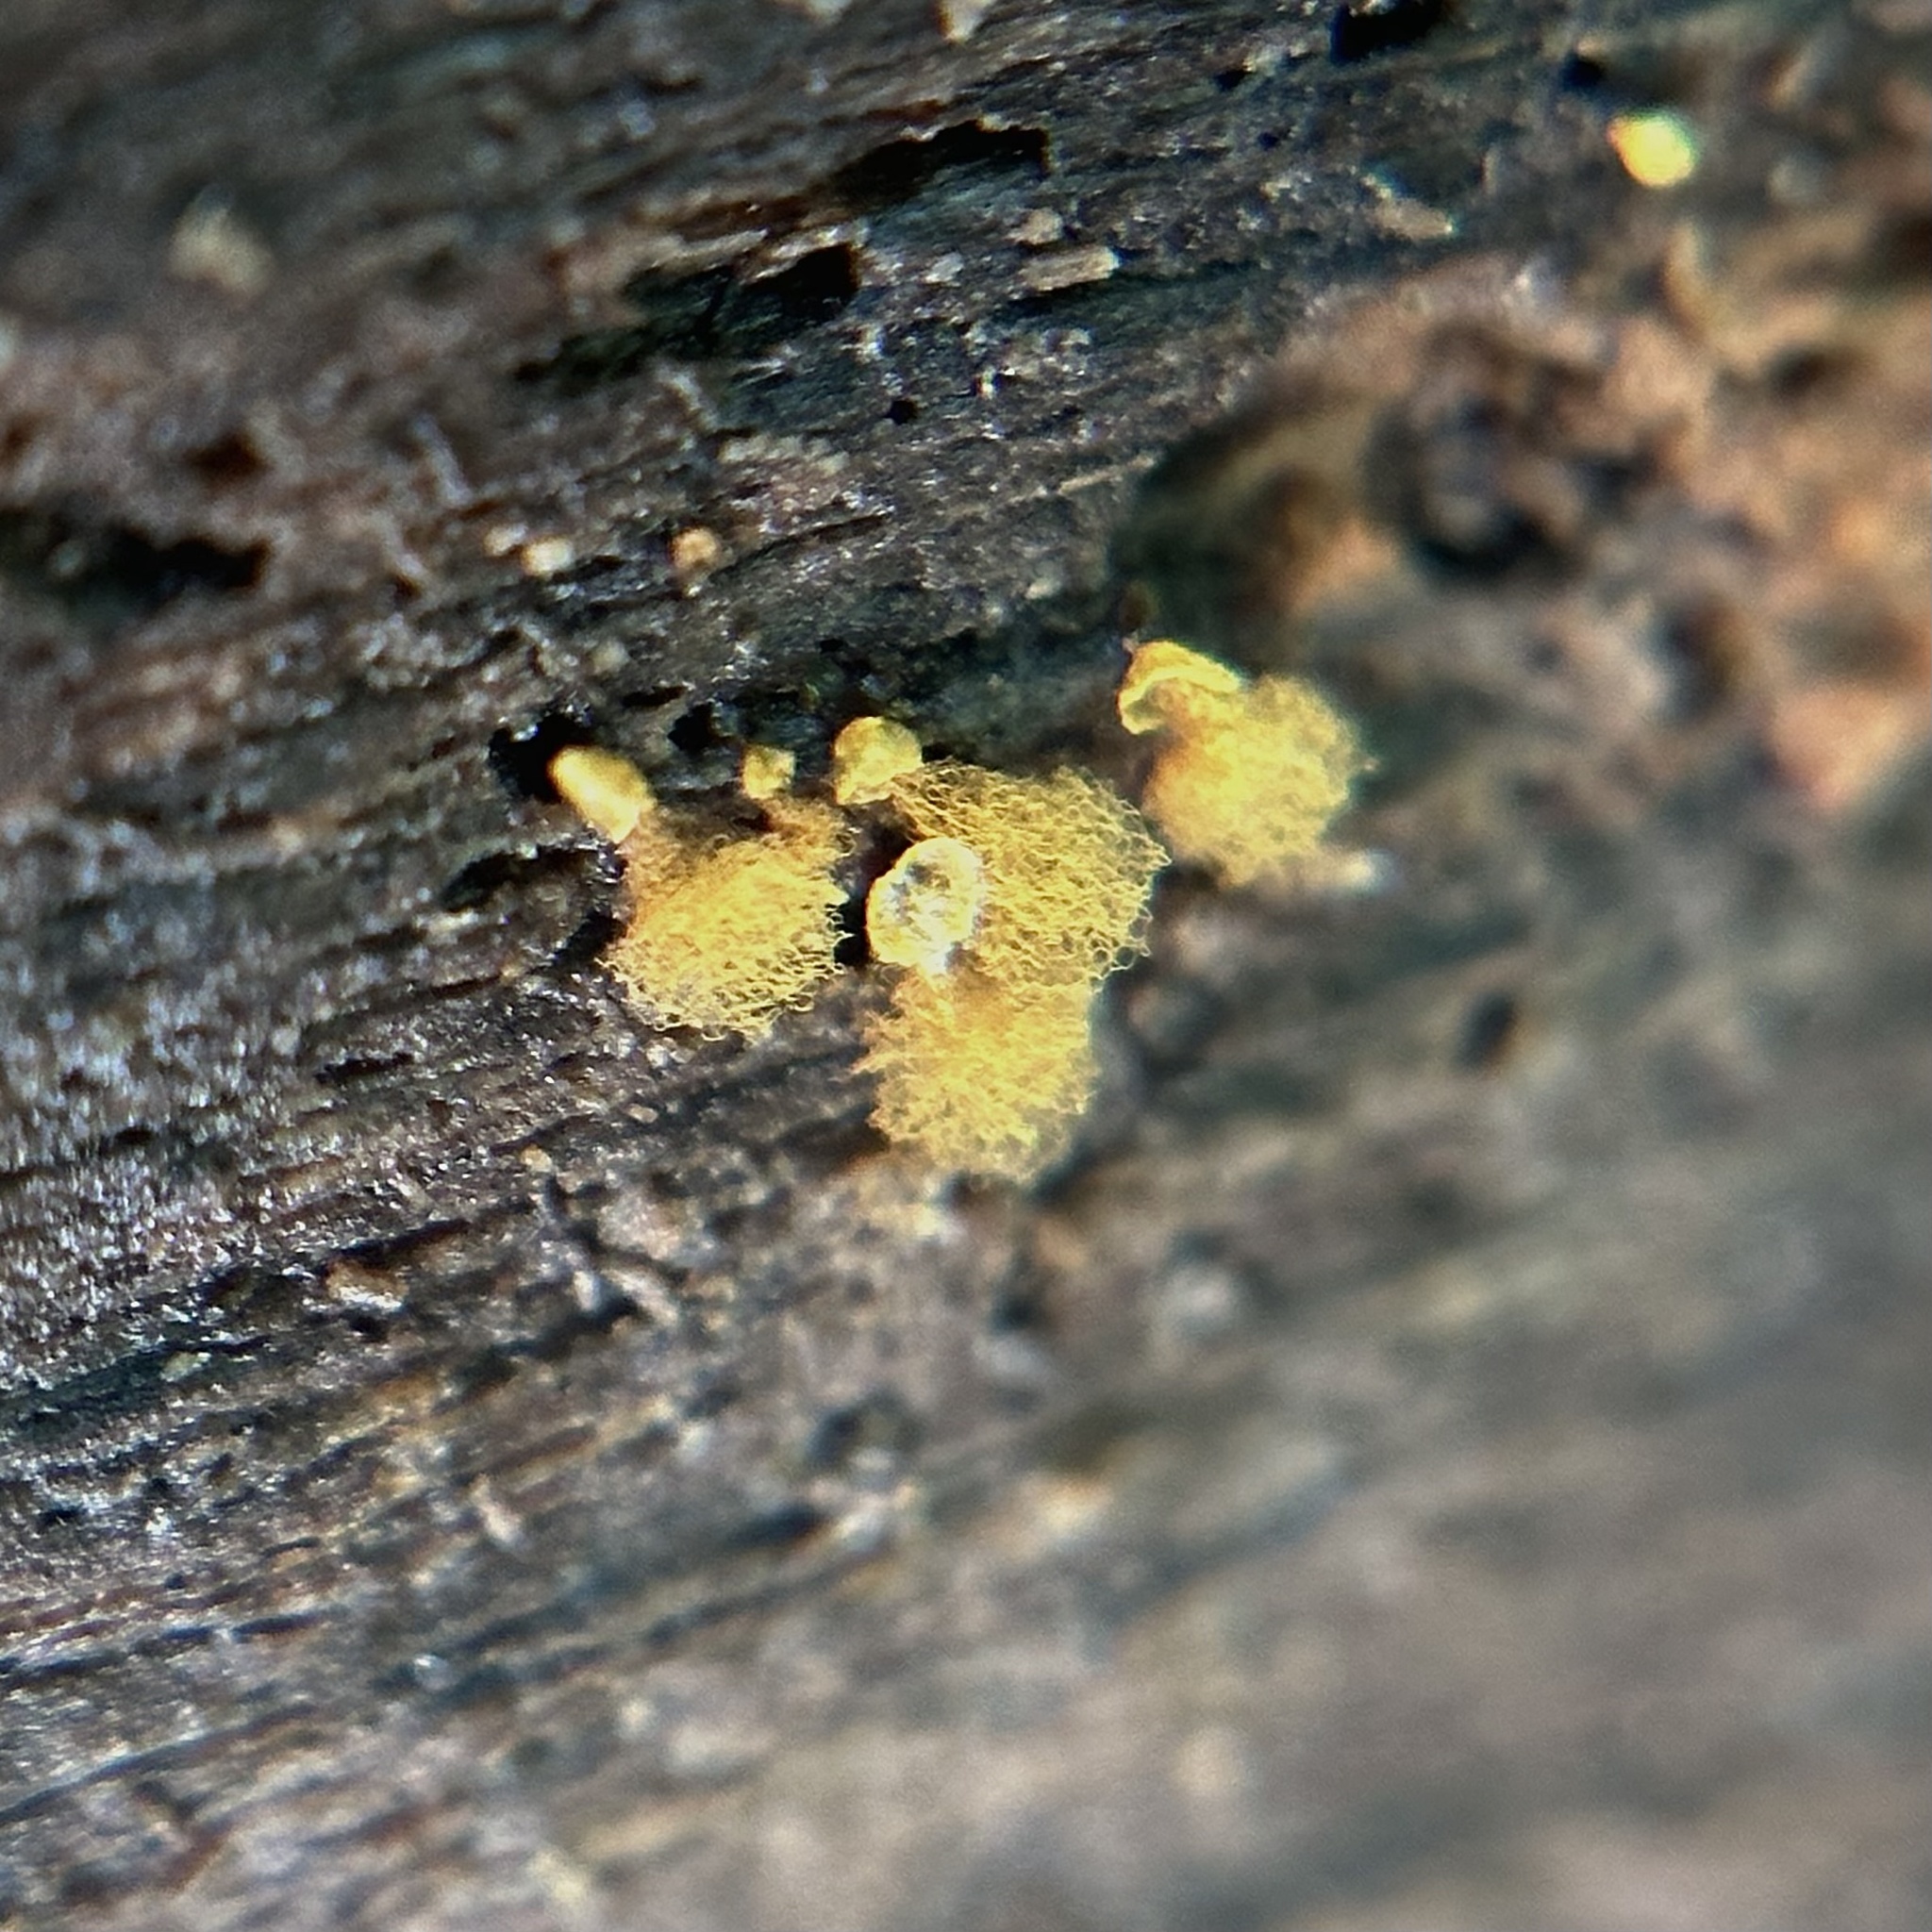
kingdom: Protozoa
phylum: Mycetozoa
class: Myxomycetes
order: Trichiales
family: Arcyriaceae
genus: Hemitrichia
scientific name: Hemitrichia calyculata
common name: Push pin slime mold
